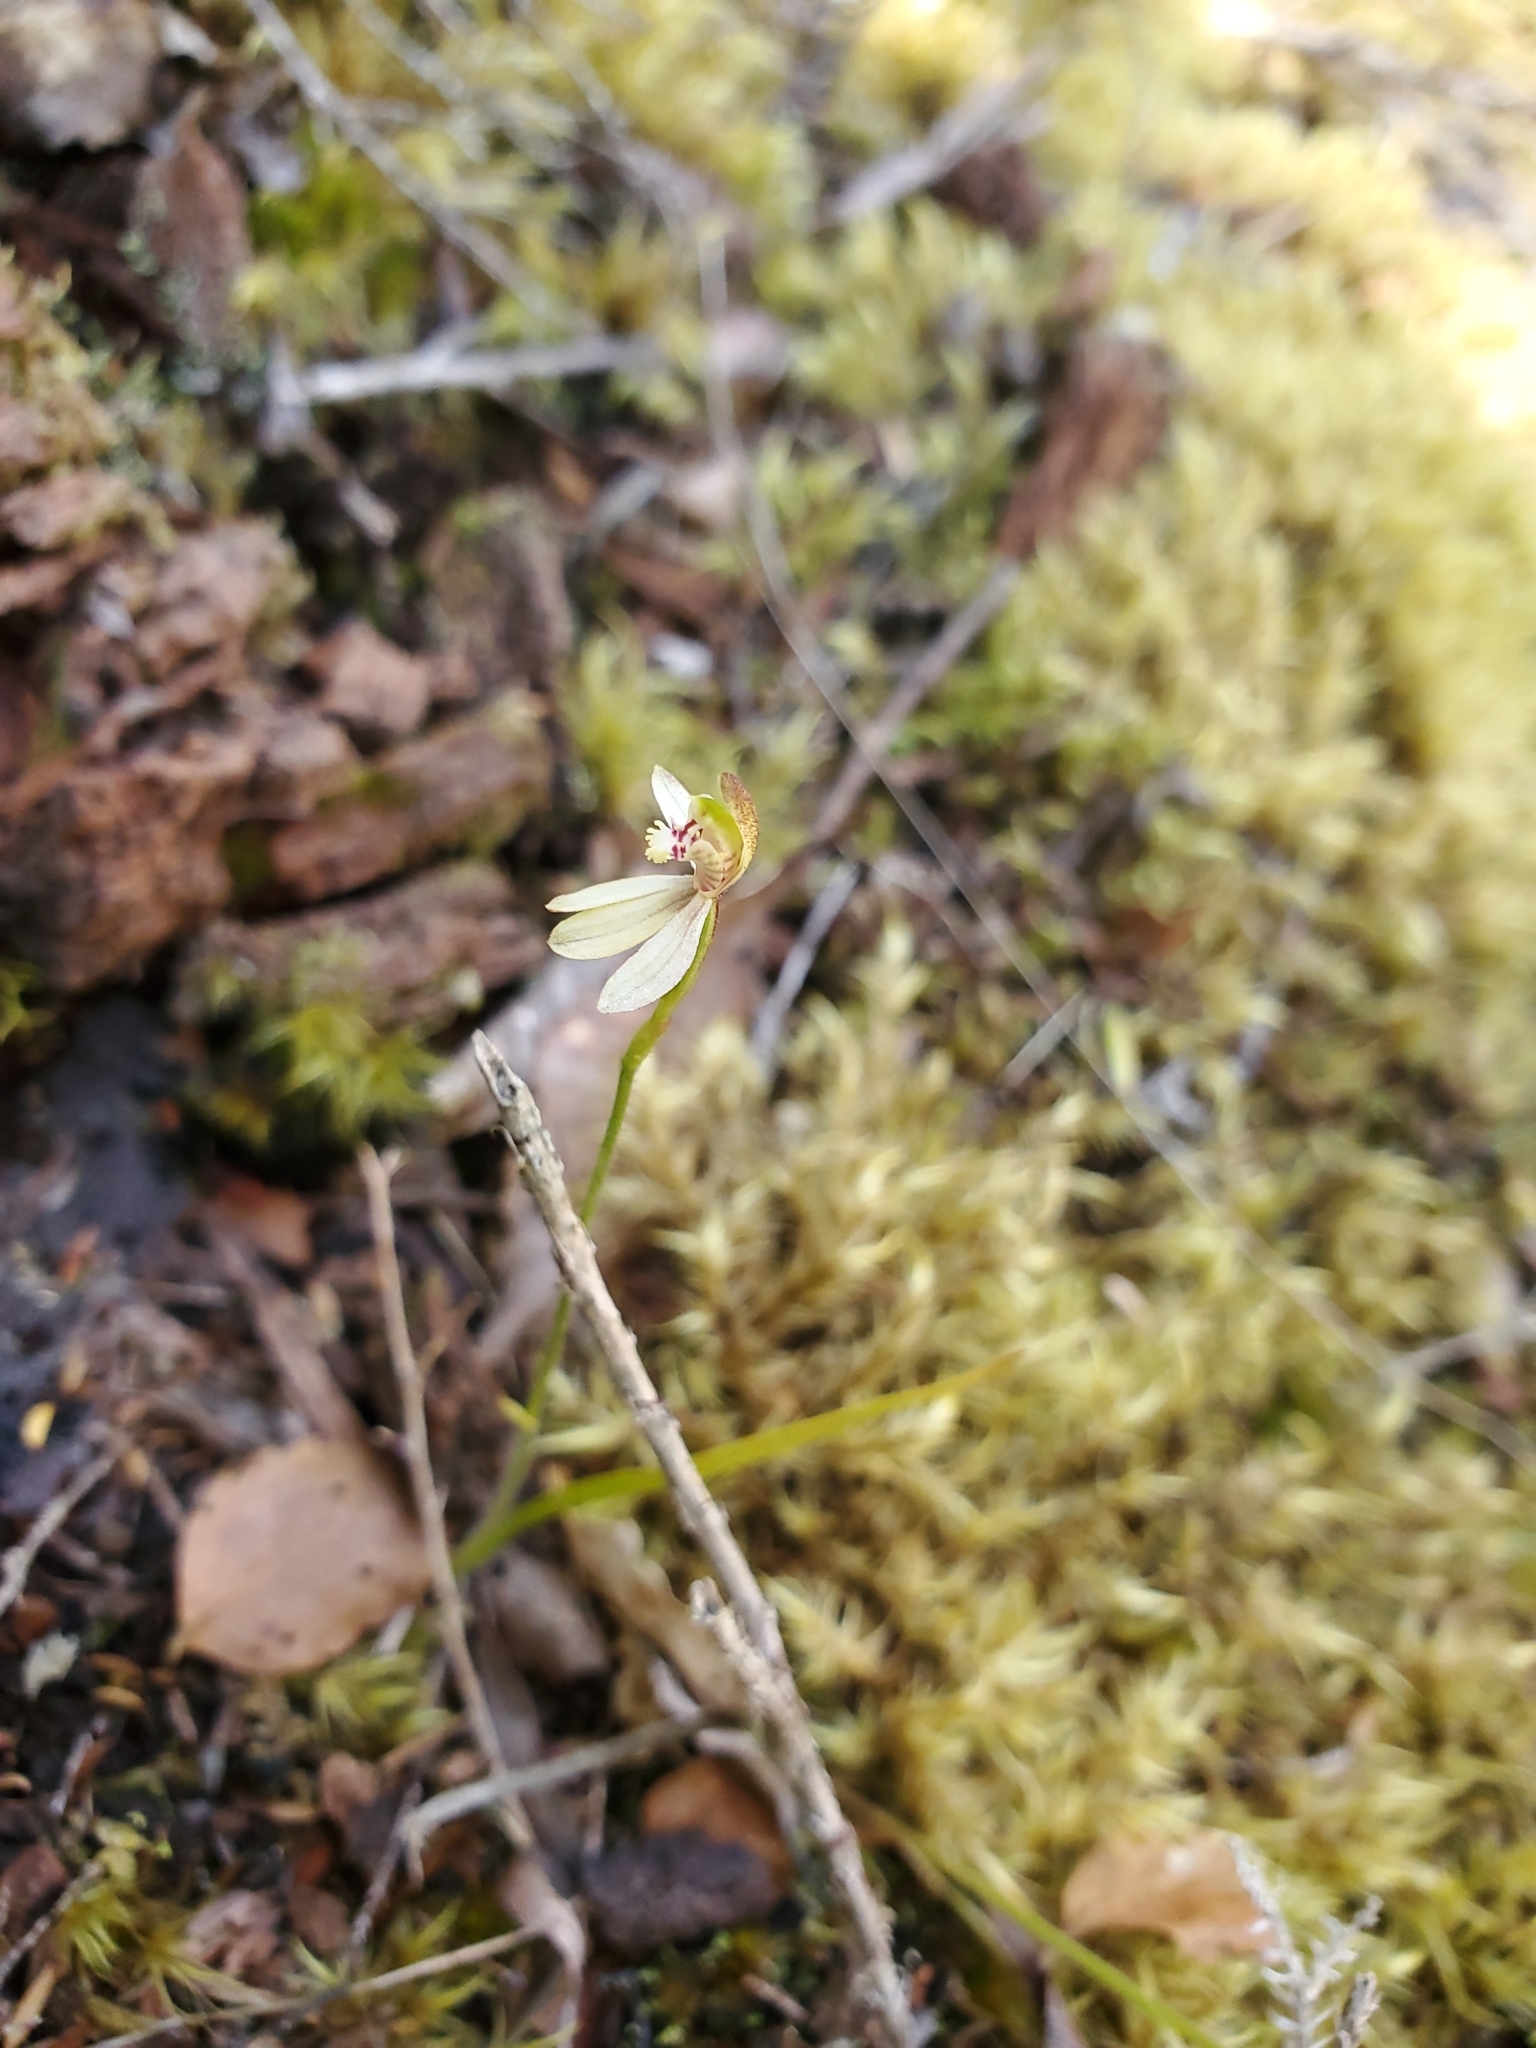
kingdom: Plantae
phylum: Tracheophyta
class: Liliopsida
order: Asparagales
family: Orchidaceae
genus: Caladenia
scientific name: Caladenia chlorostyla
